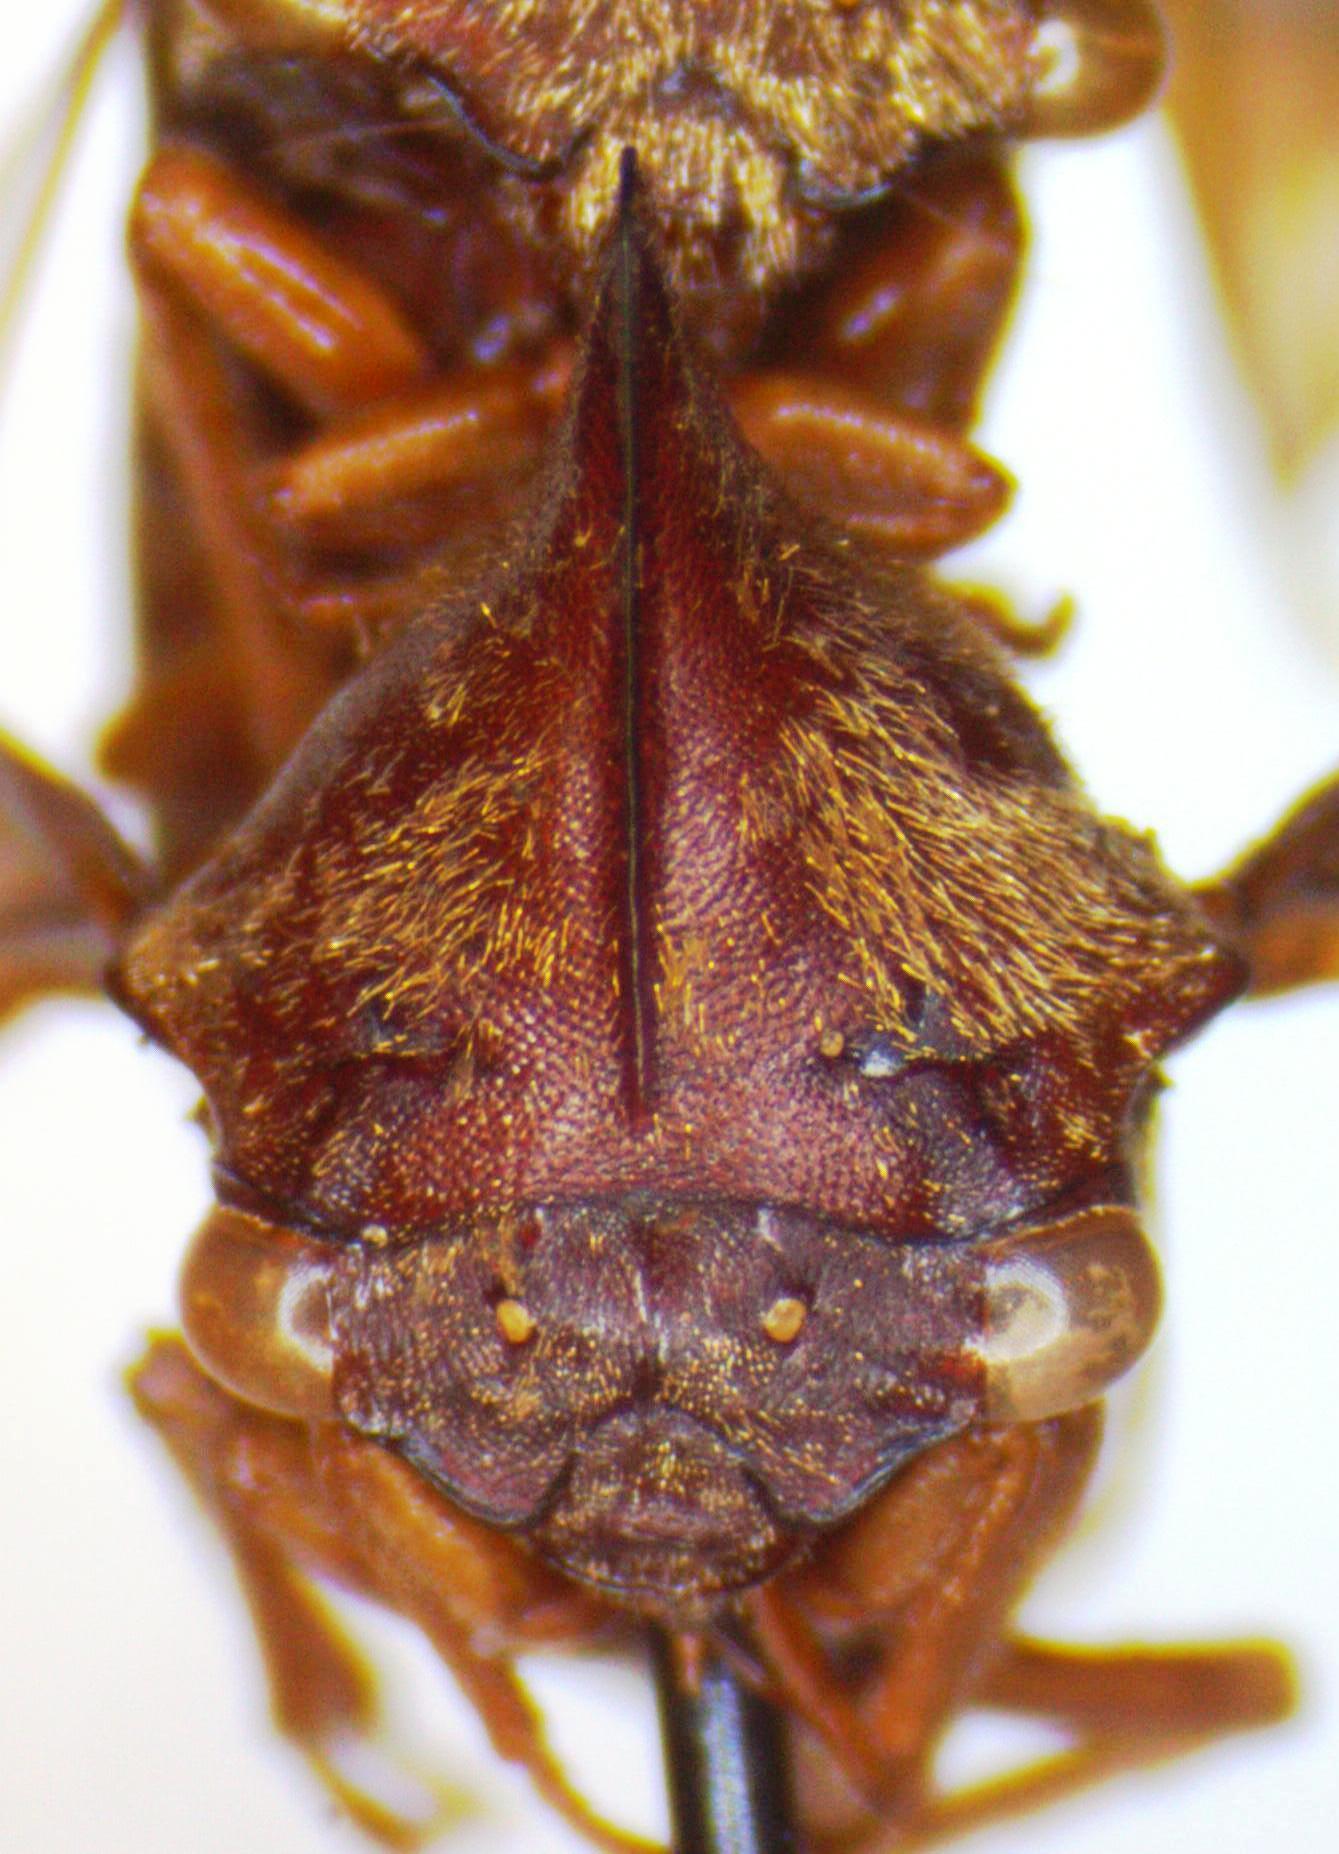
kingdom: Animalia
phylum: Arthropoda
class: Insecta
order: Hemiptera
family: Membracidae
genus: Aconophora
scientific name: Aconophora mexicana
